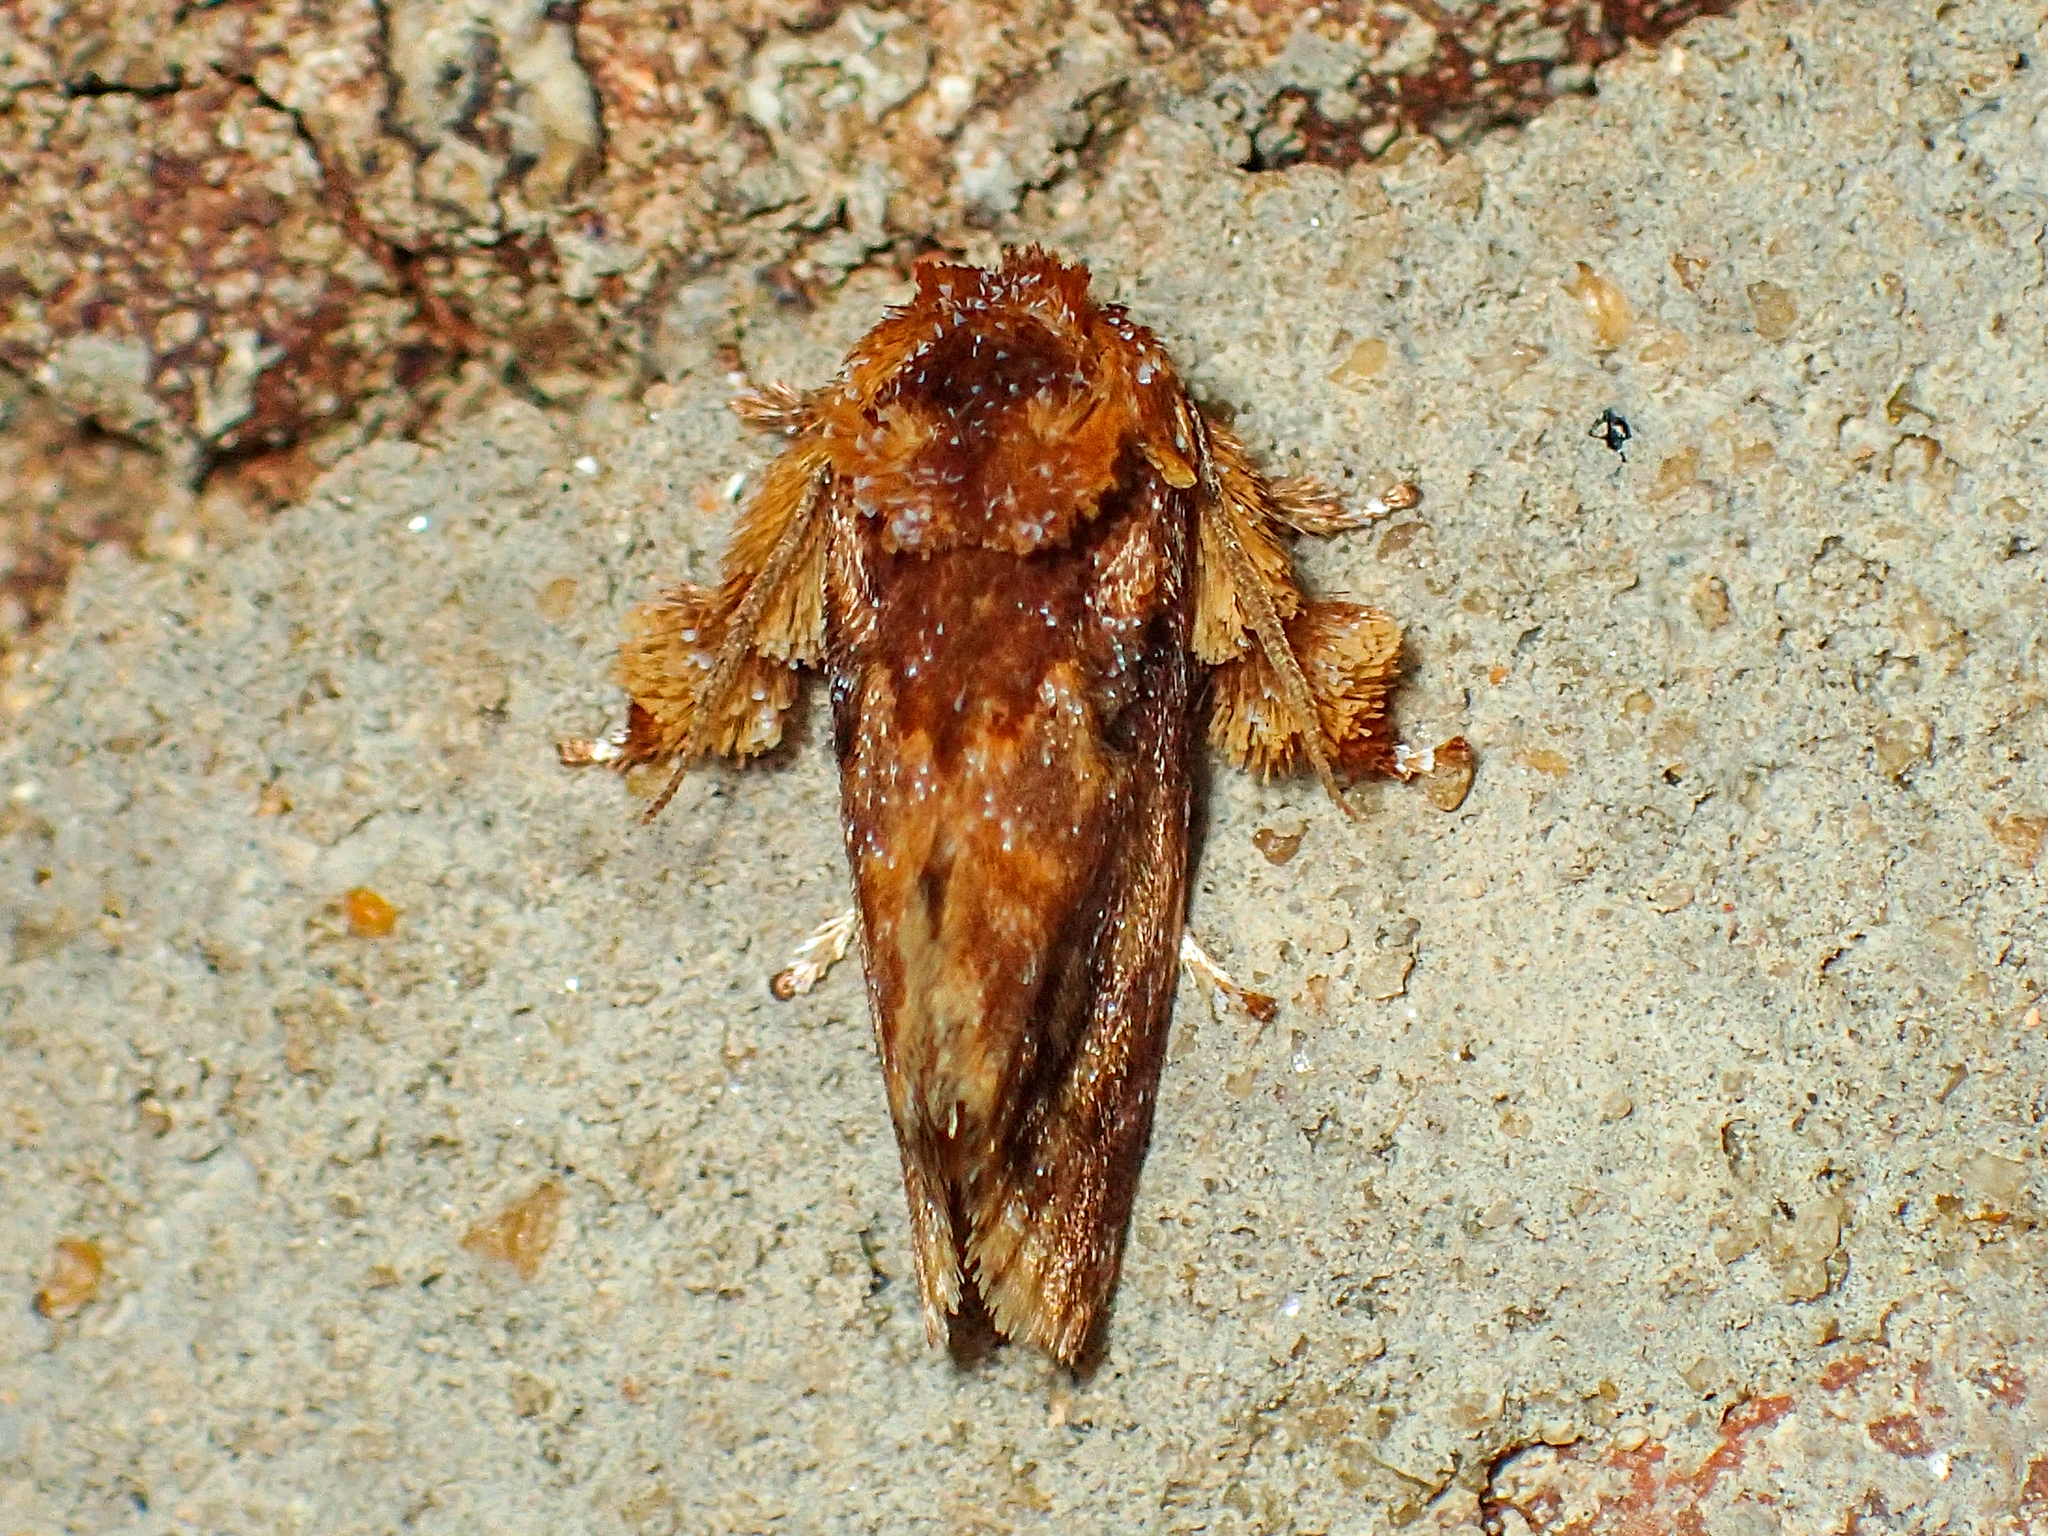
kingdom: Animalia
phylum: Arthropoda
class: Insecta
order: Lepidoptera
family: Limacodidae
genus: Isochaetes
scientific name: Isochaetes beutenmuelleri
